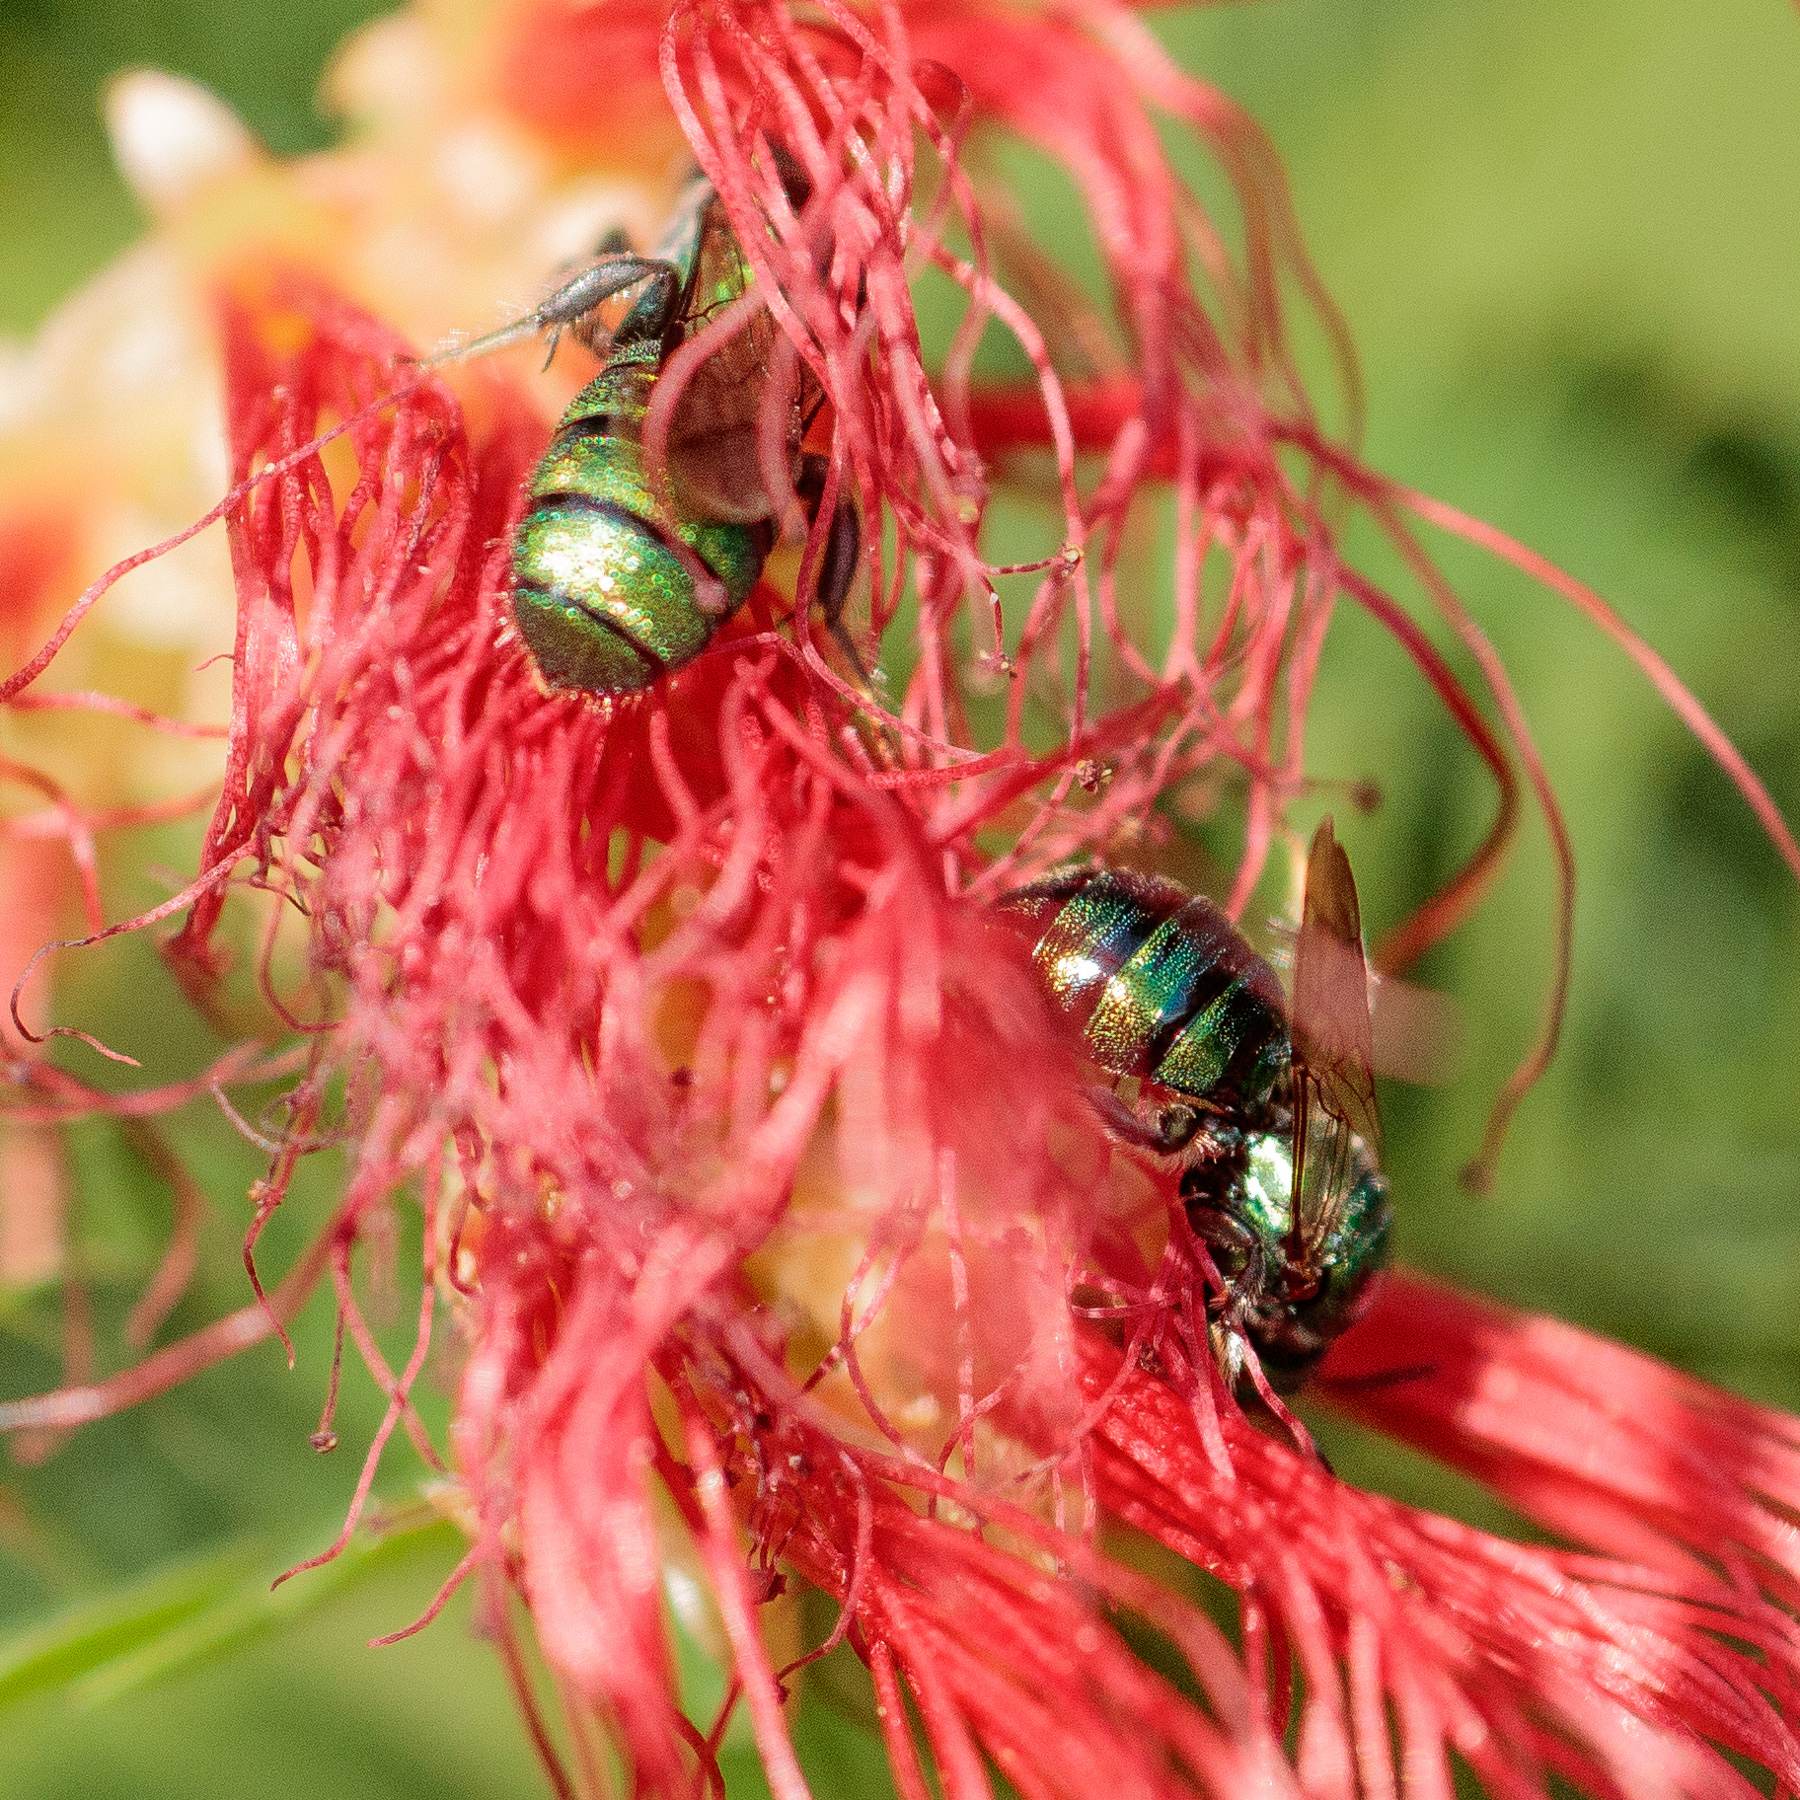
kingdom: Animalia
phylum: Arthropoda
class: Insecta
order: Hymenoptera
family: Apidae
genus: Ceratina
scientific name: Ceratina cobaltina
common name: Small carpenter bee
